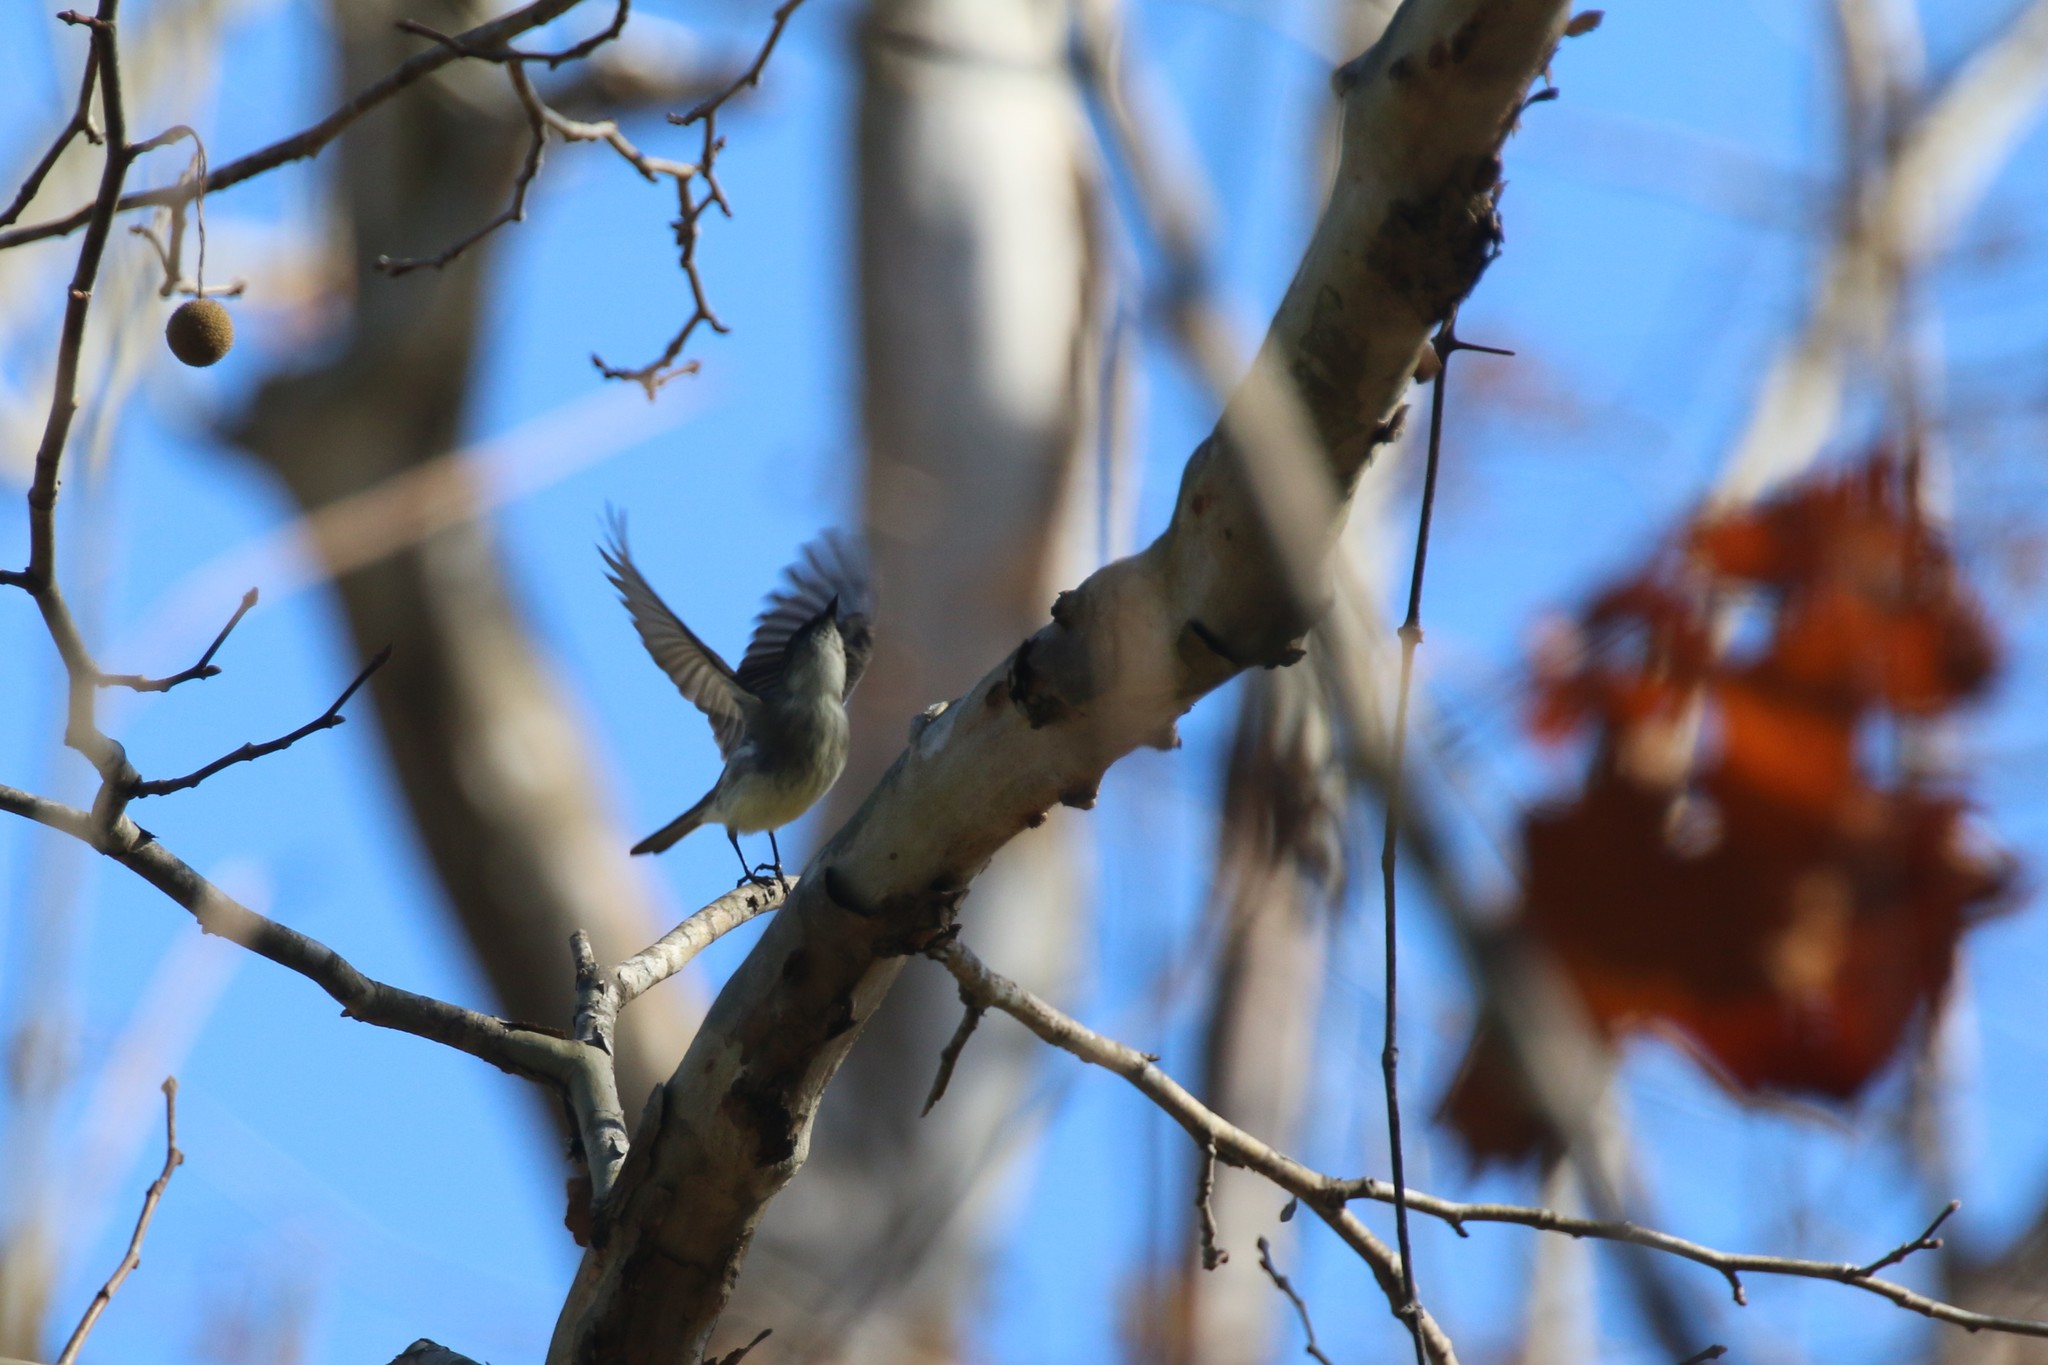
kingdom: Animalia
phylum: Chordata
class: Aves
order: Passeriformes
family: Tyrannidae
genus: Sayornis
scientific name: Sayornis phoebe
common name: Eastern phoebe
